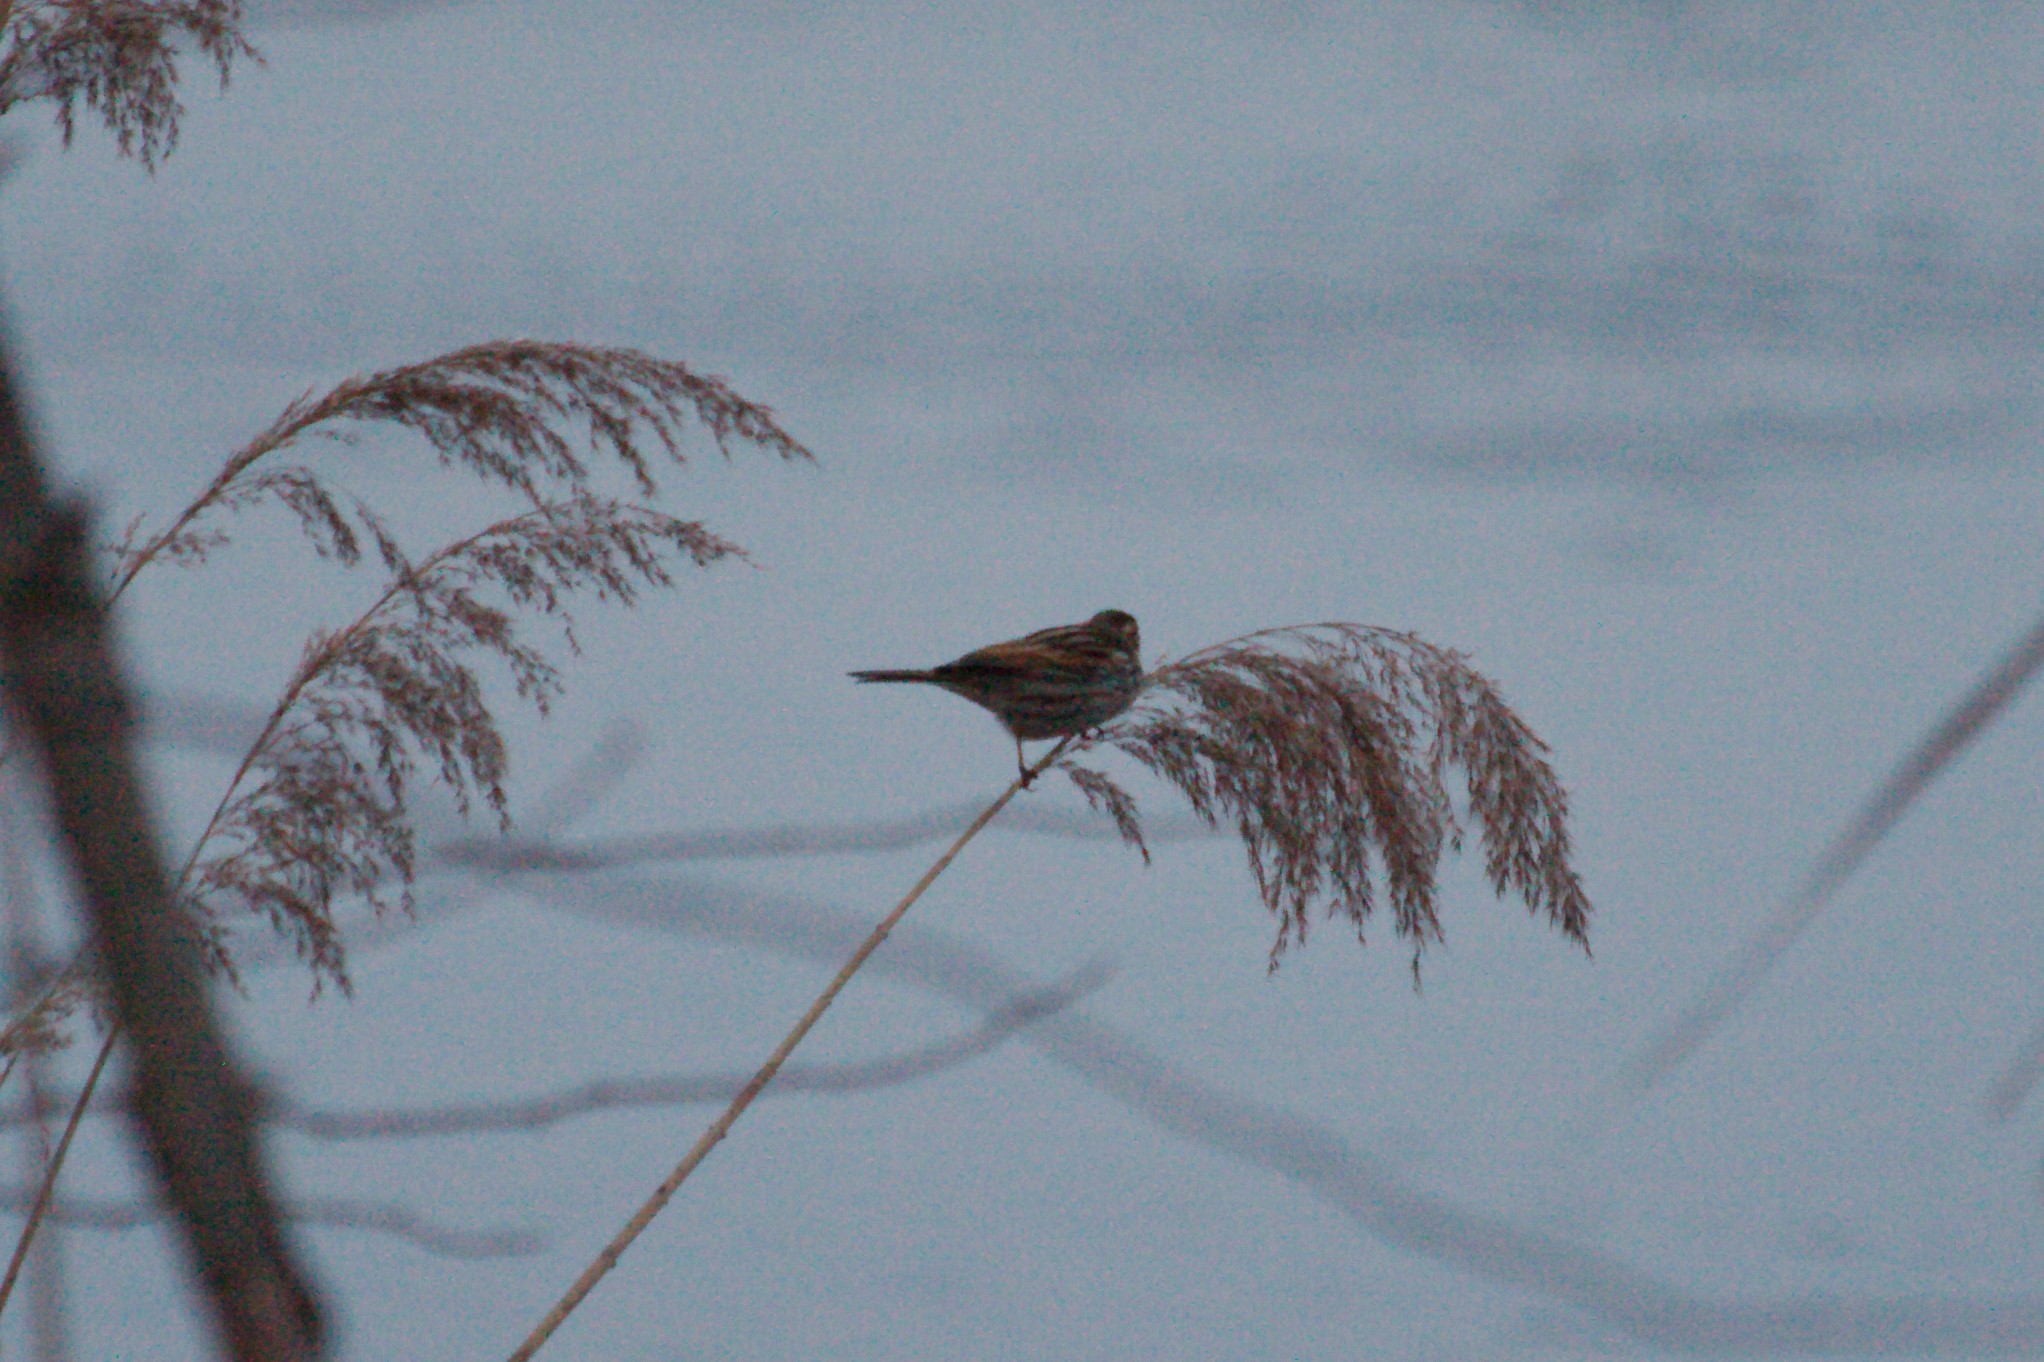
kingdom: Animalia
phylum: Chordata
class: Aves
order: Passeriformes
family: Emberizidae
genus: Emberiza
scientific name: Emberiza schoeniclus
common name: Reed bunting
